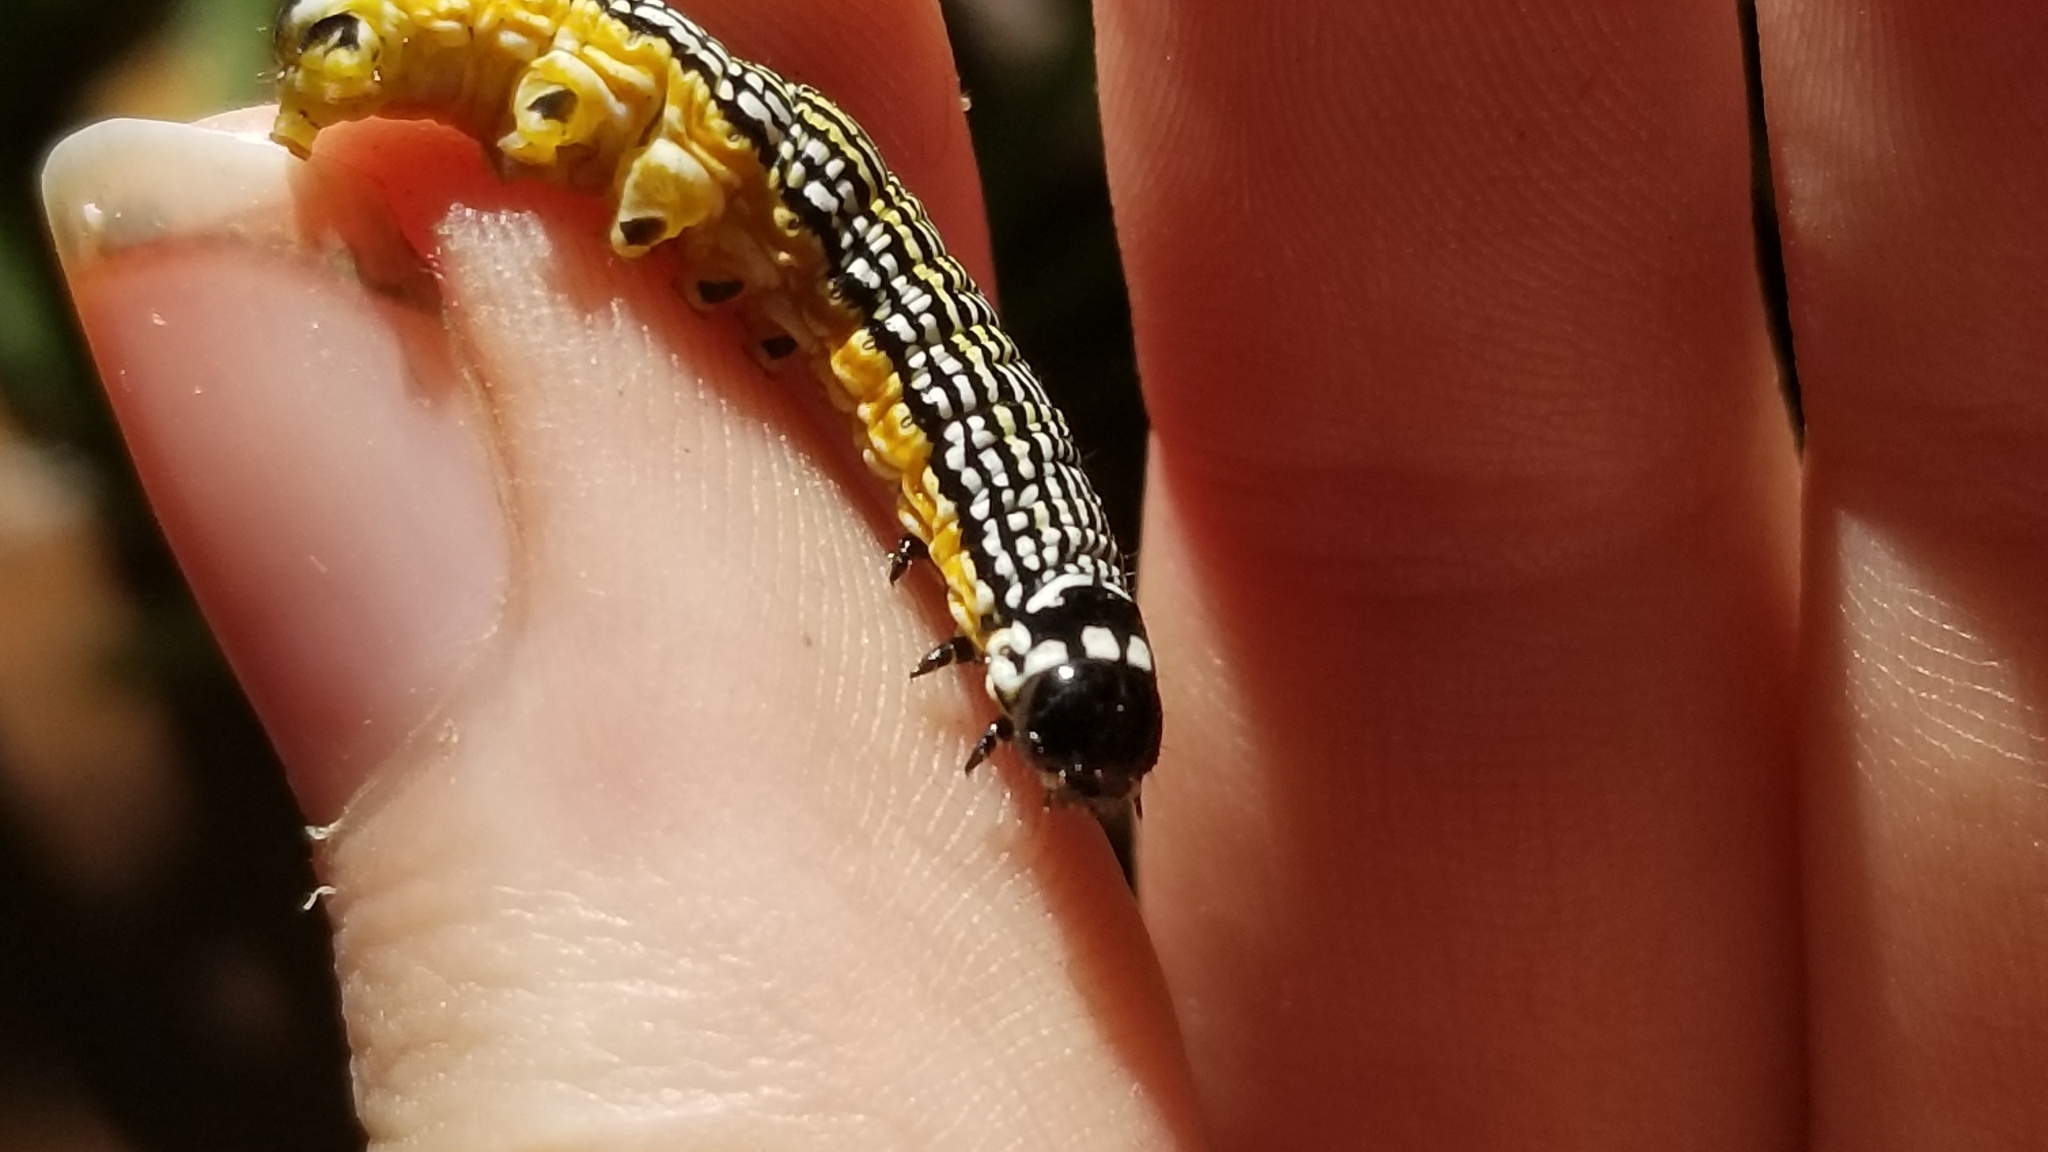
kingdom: Animalia
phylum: Arthropoda
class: Insecta
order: Lepidoptera
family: Noctuidae
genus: Phosphila
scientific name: Phosphila turbulenta
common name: Turbulent phosphila moth
